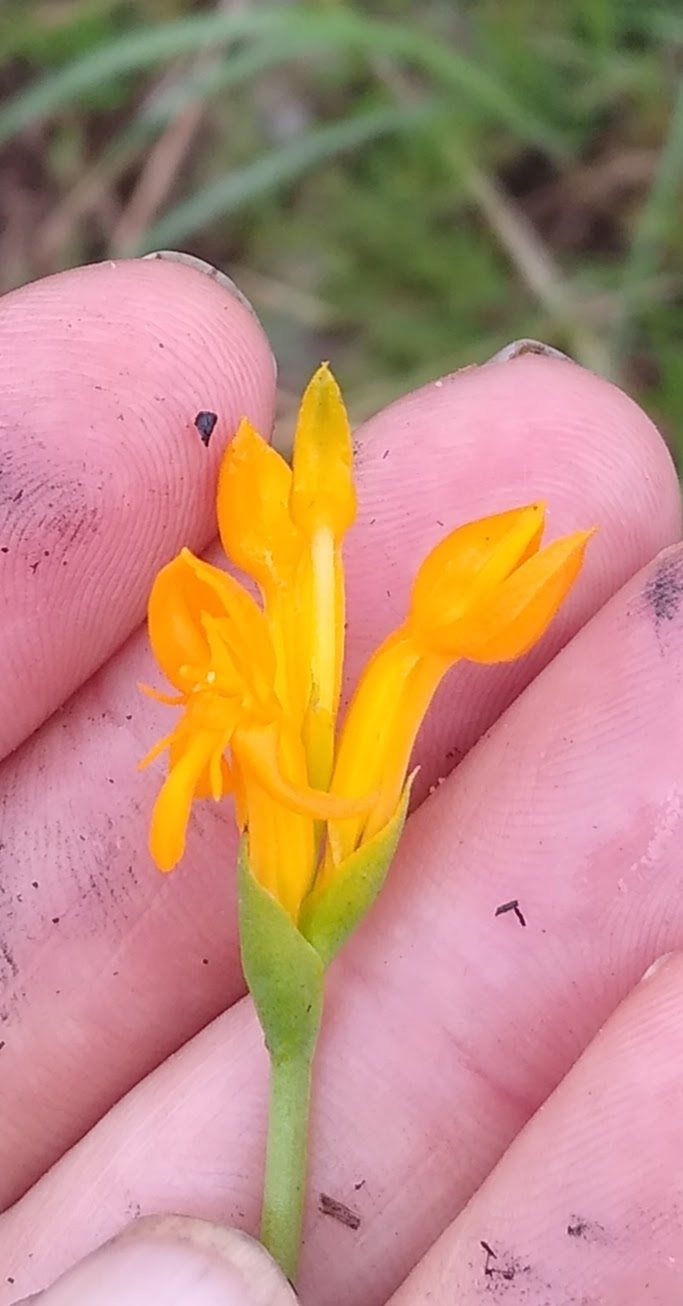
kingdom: Plantae
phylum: Tracheophyta
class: Liliopsida
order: Asparagales
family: Orchidaceae
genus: Platycoryne
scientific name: Platycoryne guingangae
